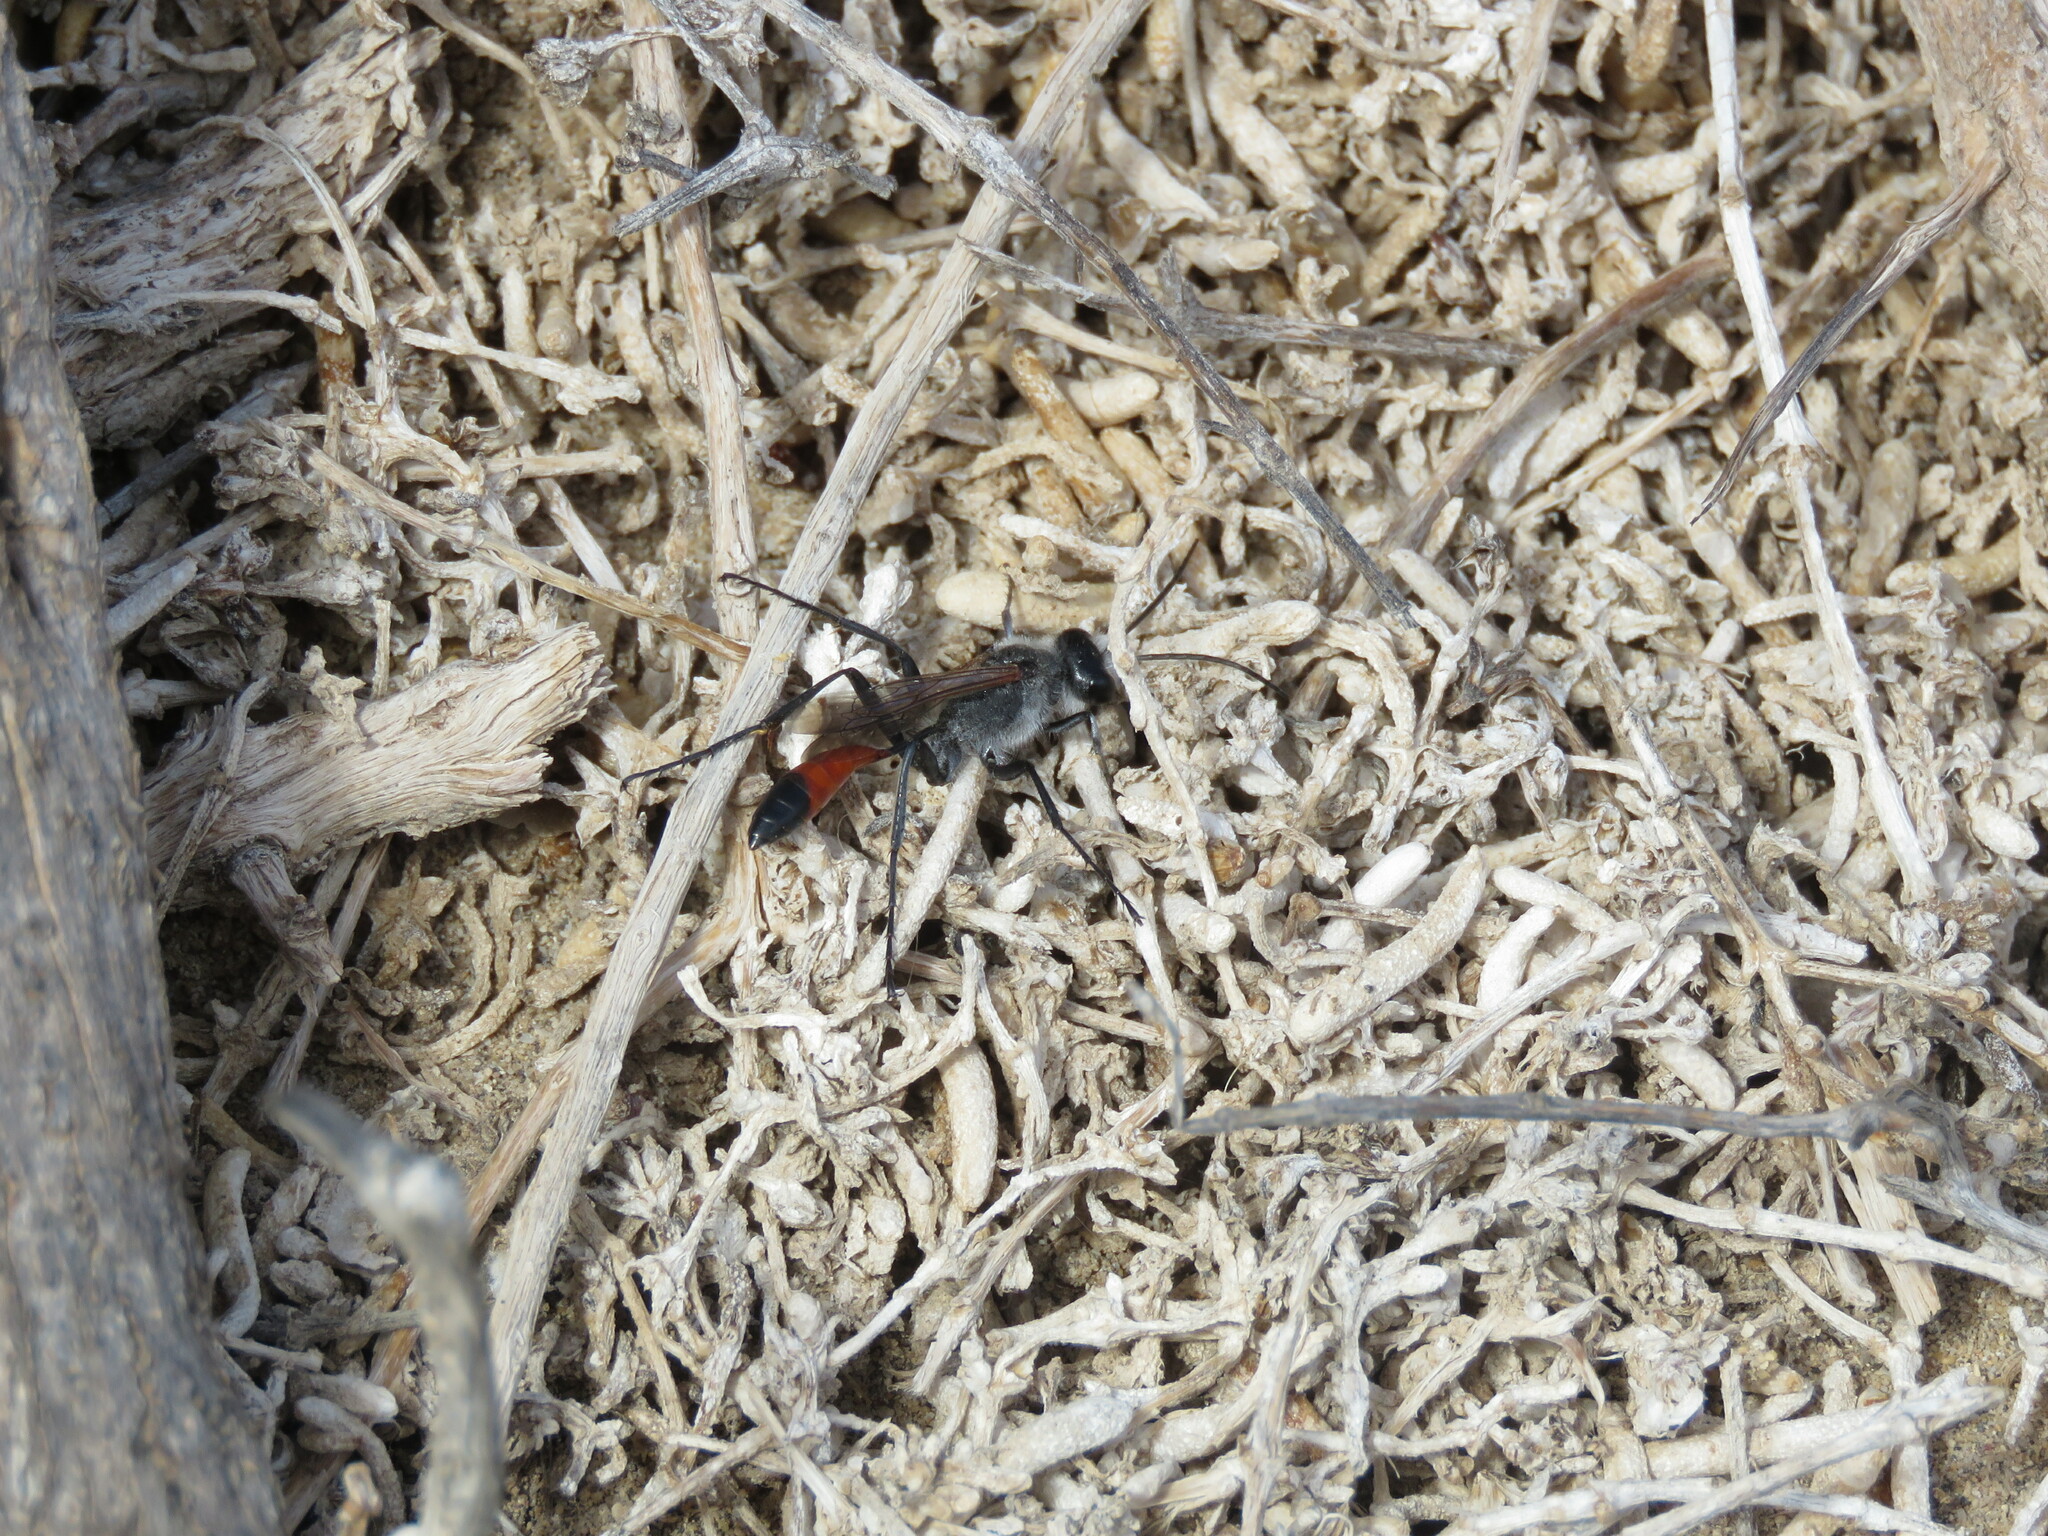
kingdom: Animalia
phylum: Arthropoda
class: Insecta
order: Hymenoptera
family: Sphecidae
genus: Podalonia
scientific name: Podalonia tydei
